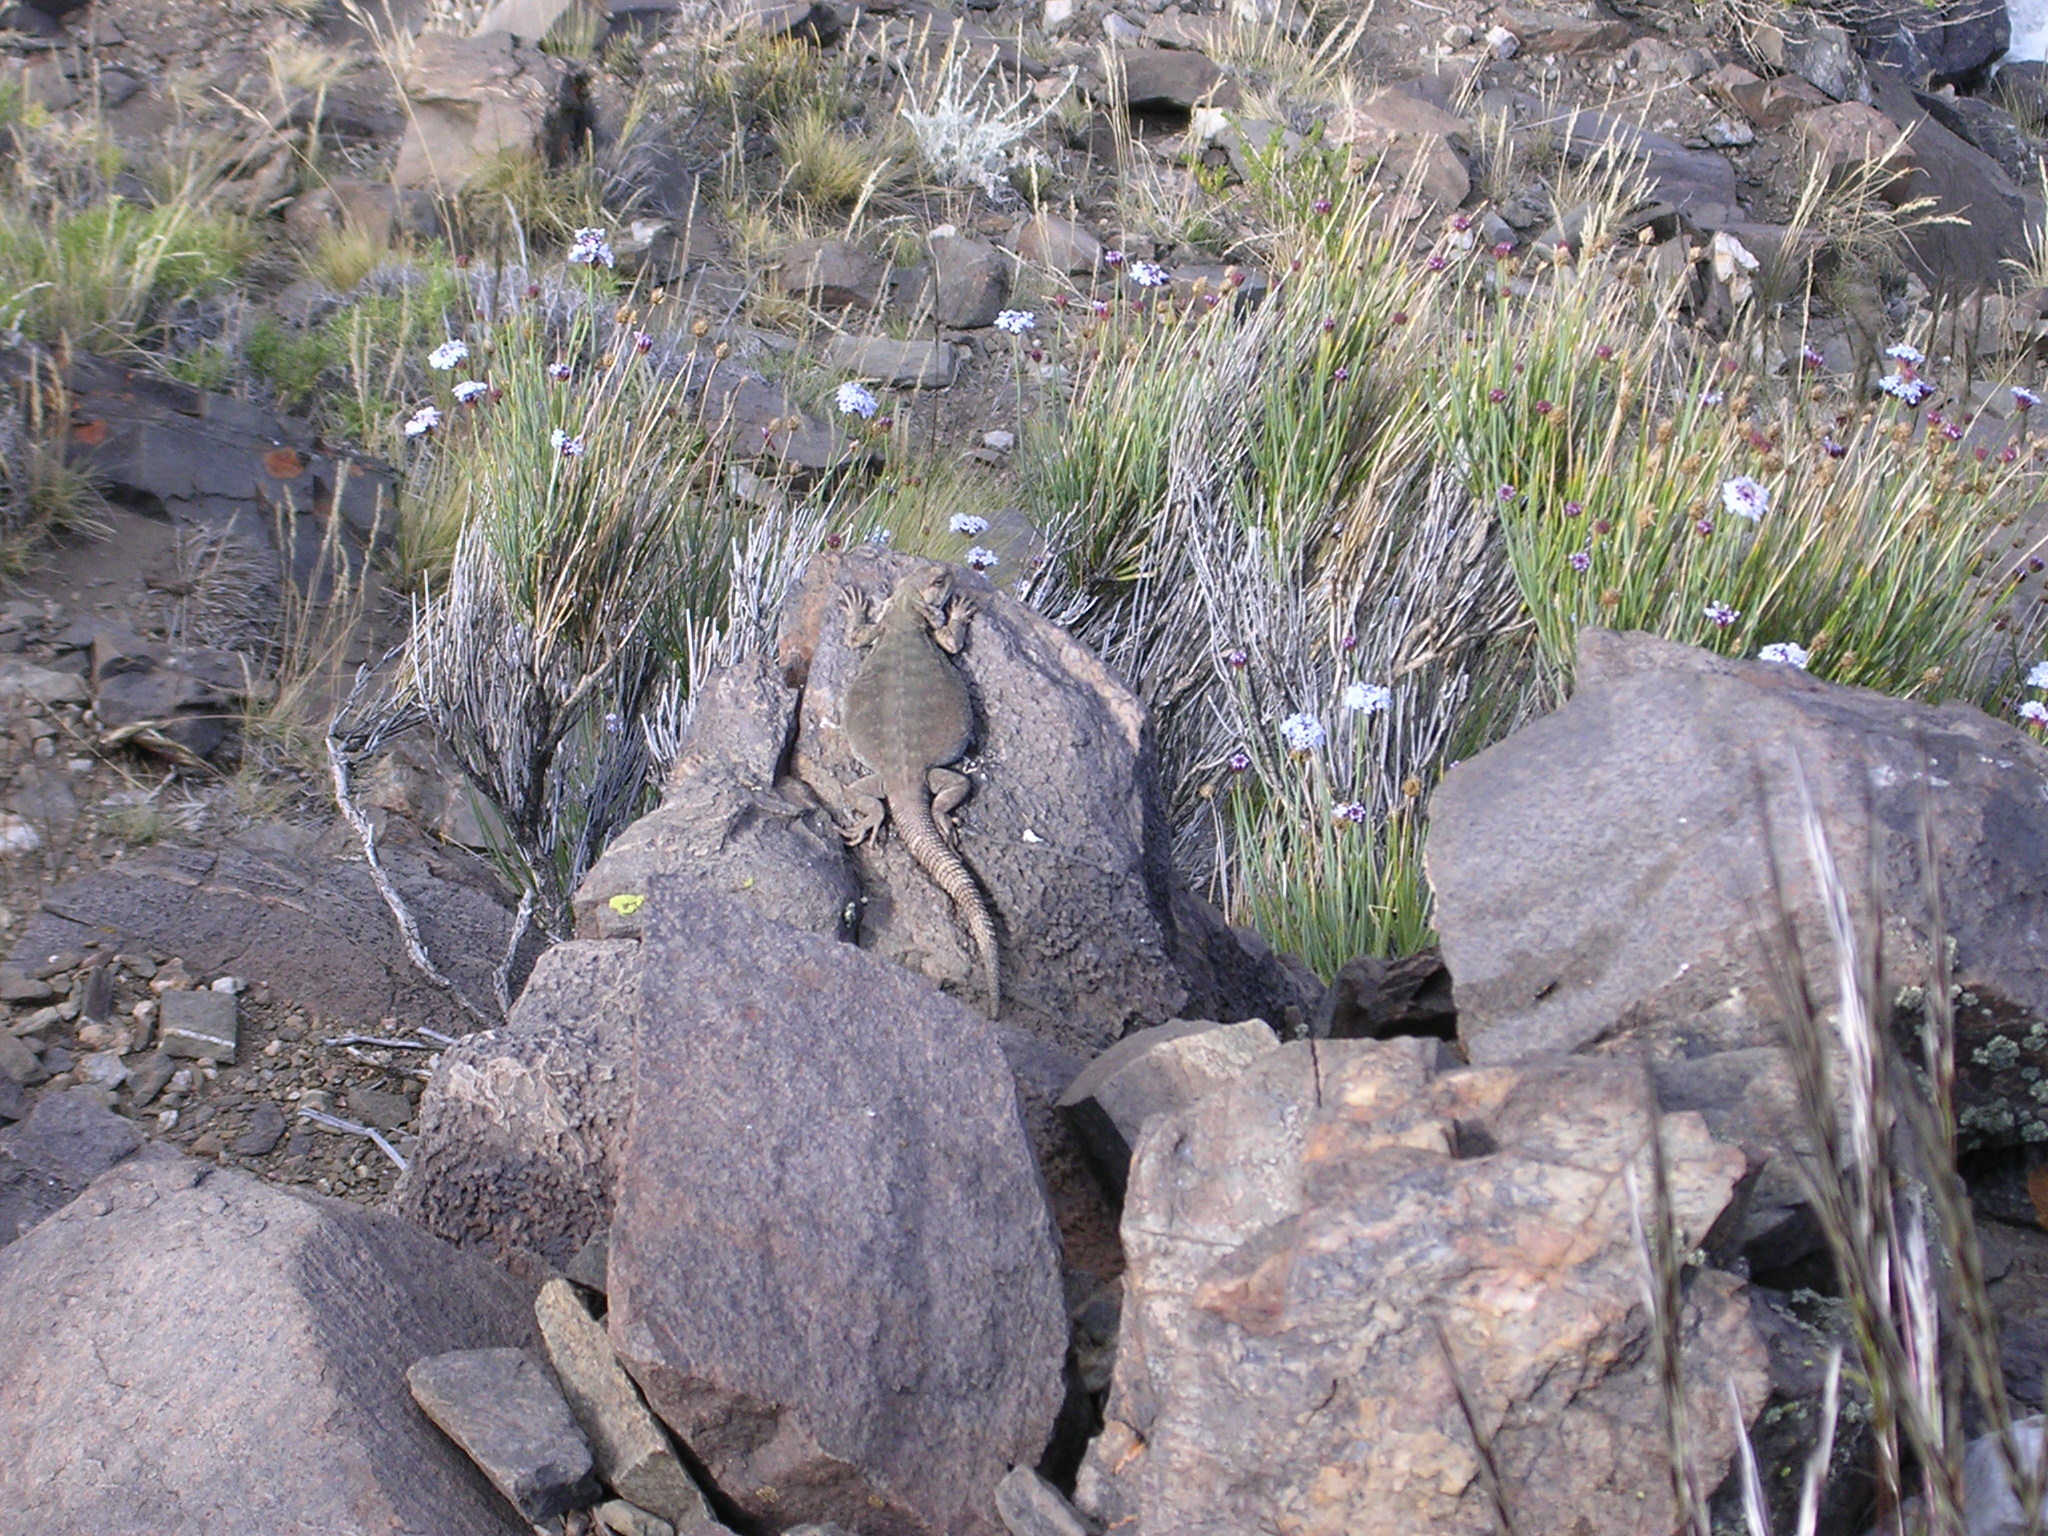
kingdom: Animalia
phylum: Chordata
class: Squamata
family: Liolaemidae
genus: Phymaturus
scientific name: Phymaturus roigorum
